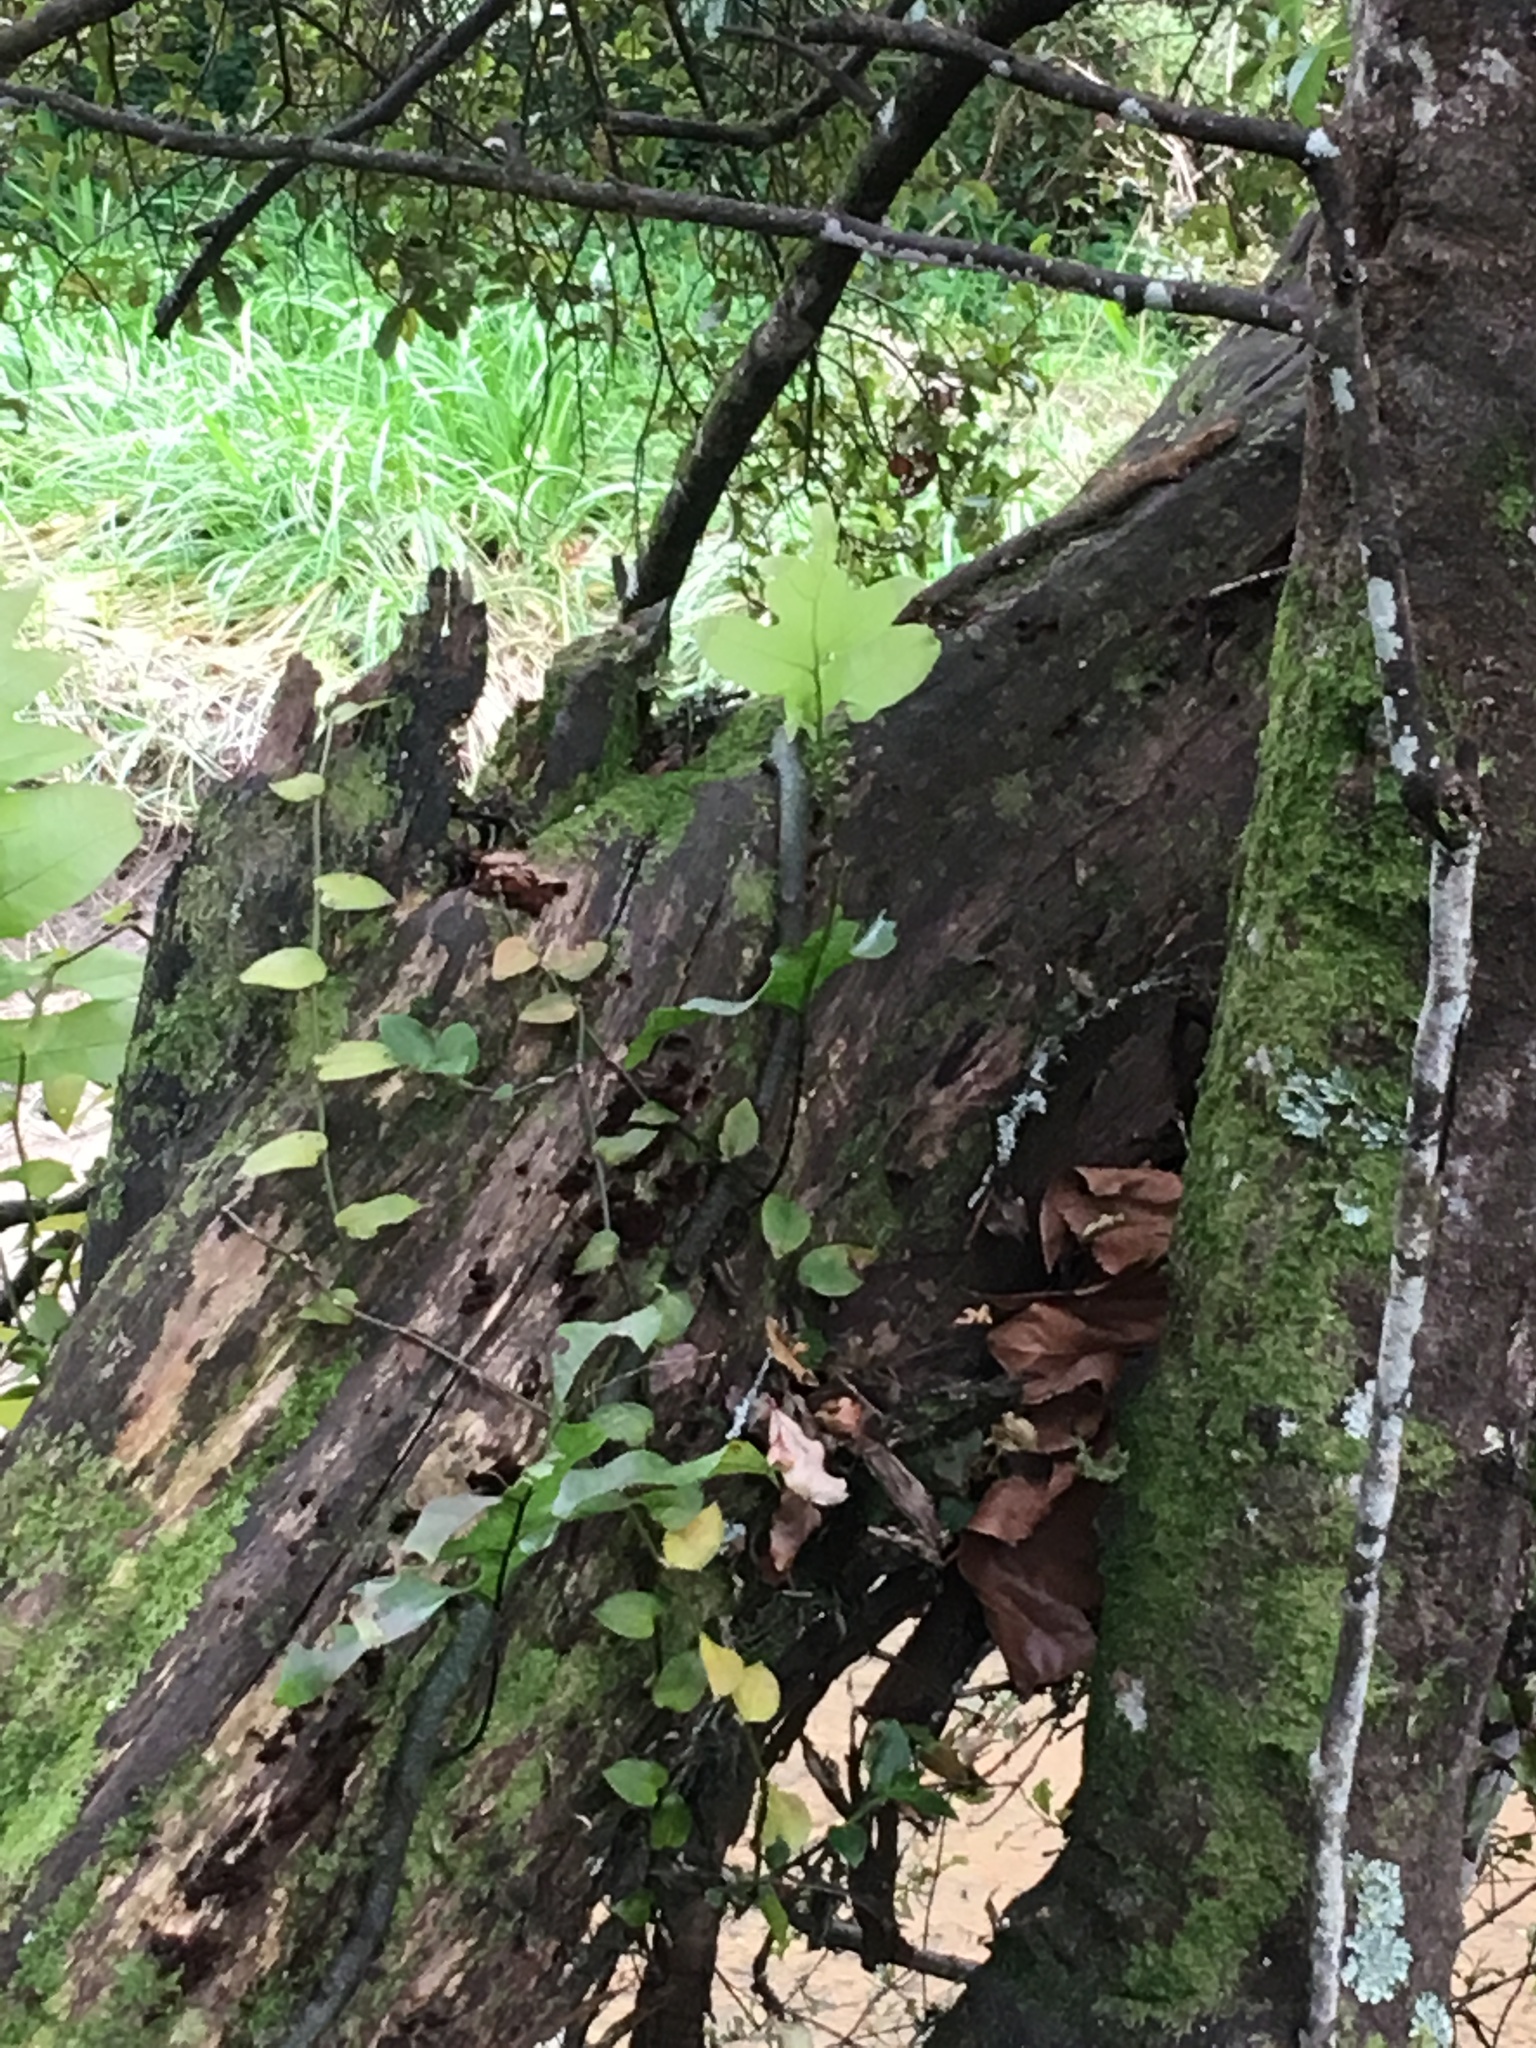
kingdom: Plantae
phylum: Tracheophyta
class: Liliopsida
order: Commelinales
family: Commelinaceae
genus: Tradescantia
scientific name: Tradescantia fluminensis
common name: Wandering-jew
